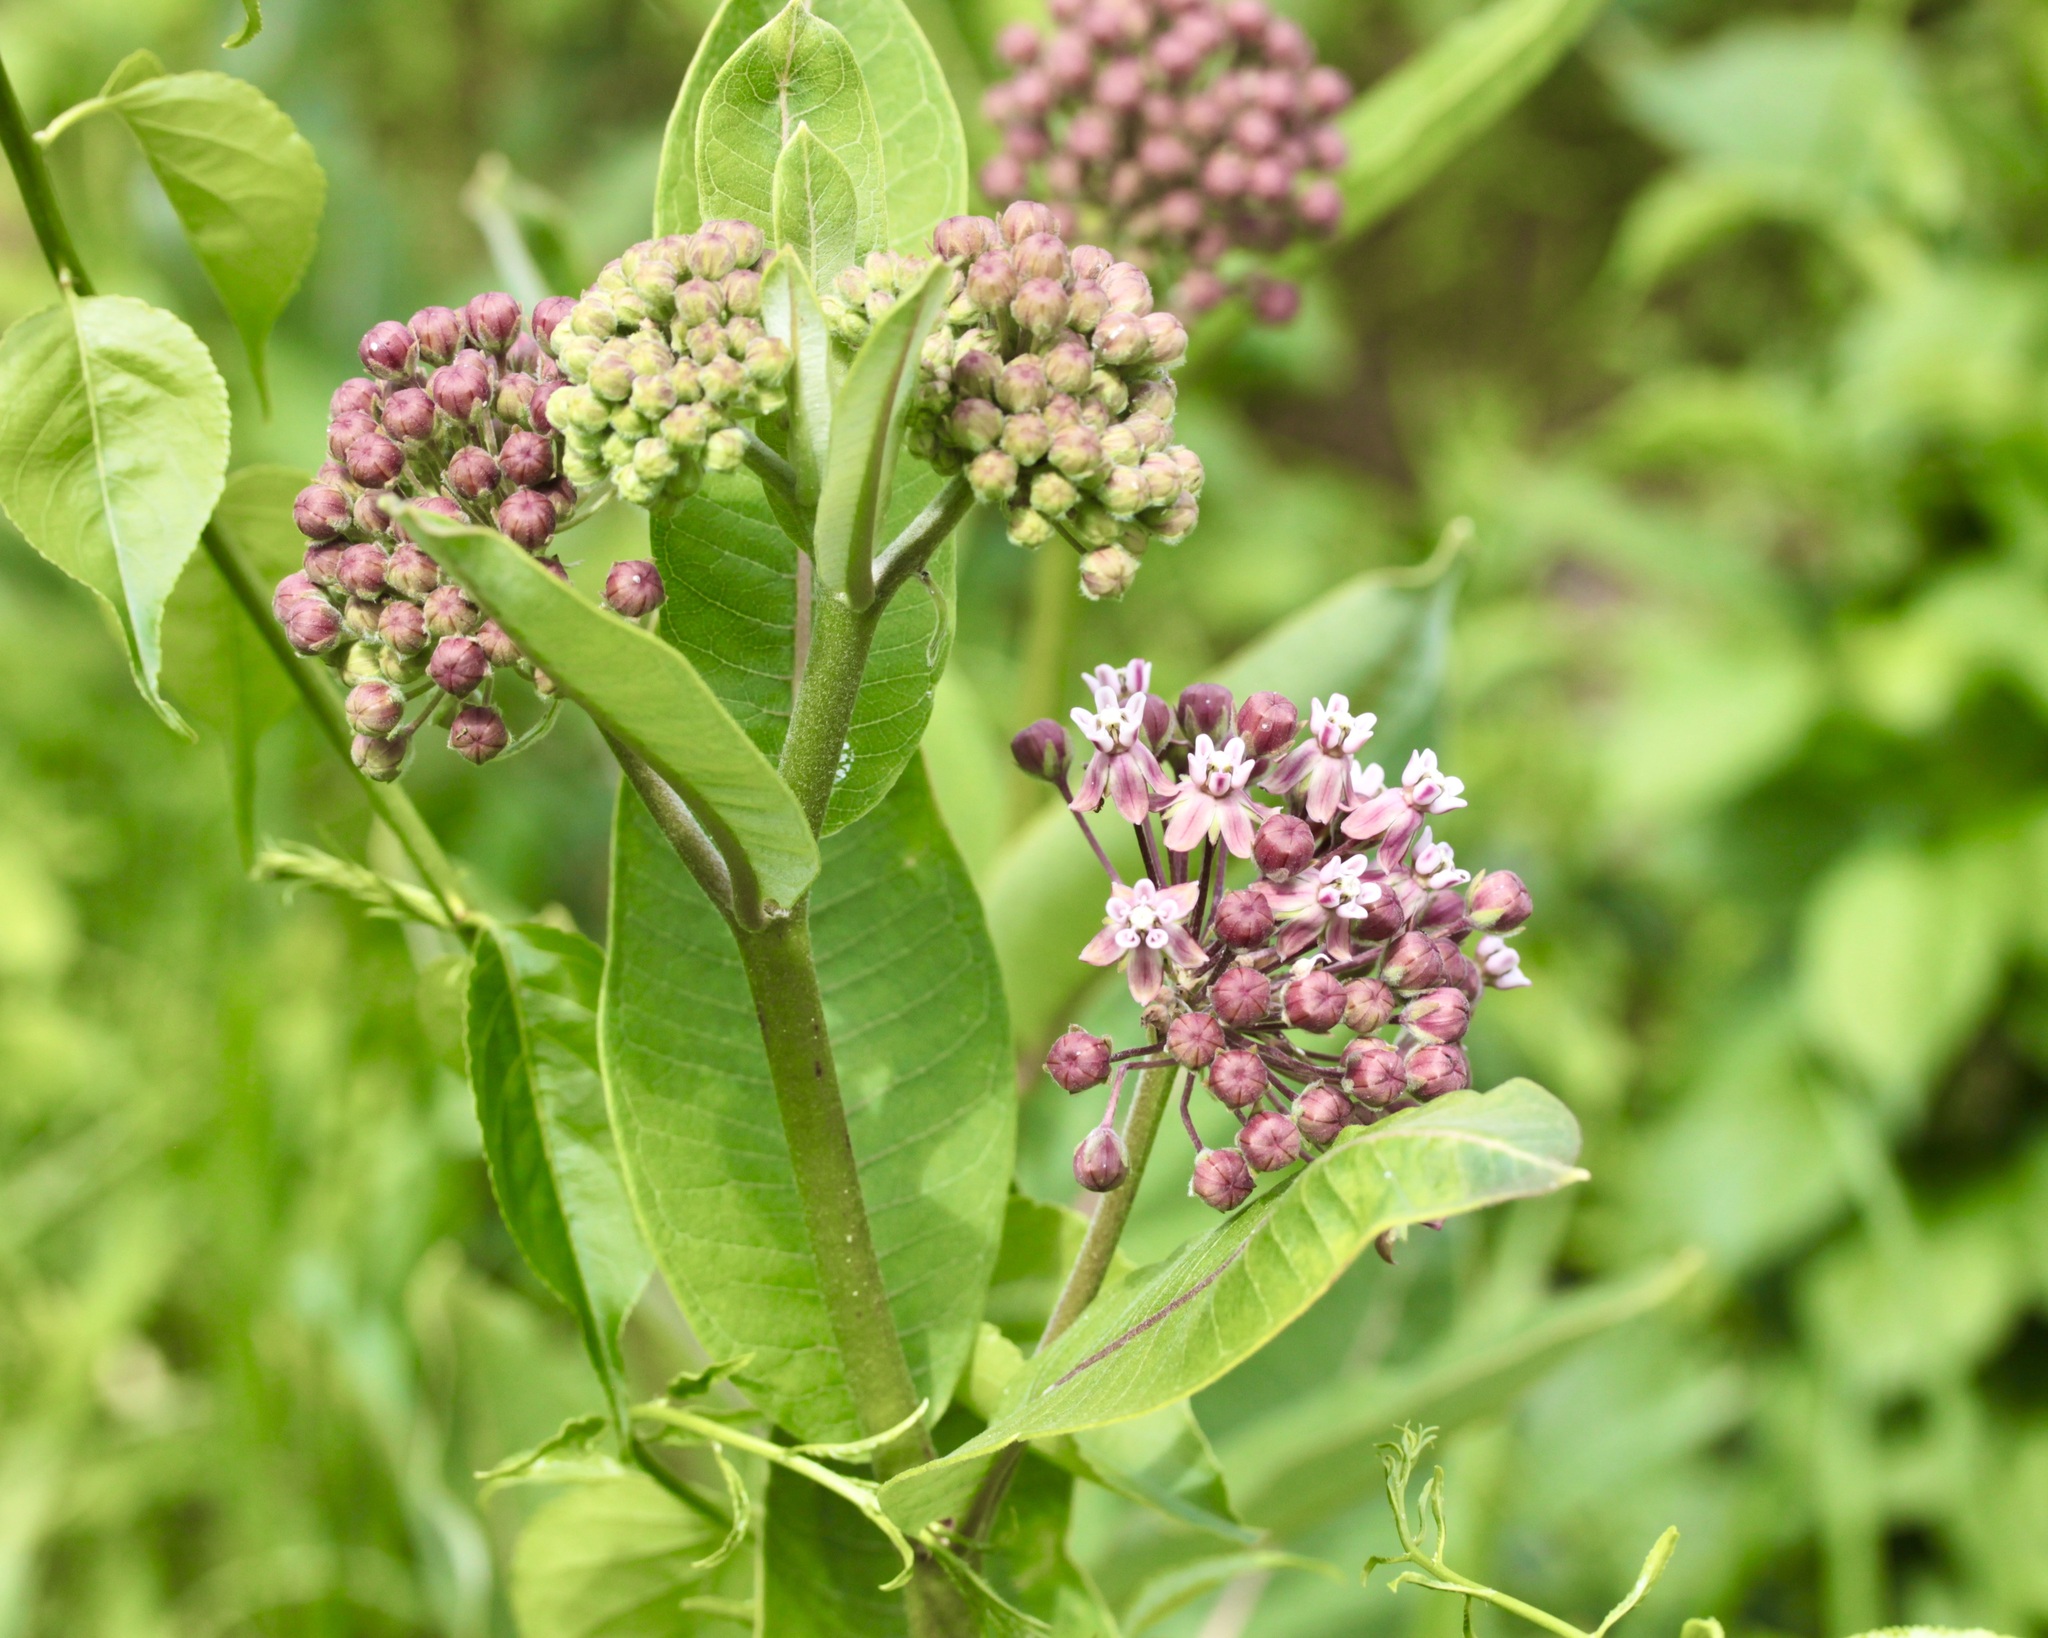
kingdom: Plantae
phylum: Tracheophyta
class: Magnoliopsida
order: Gentianales
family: Apocynaceae
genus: Asclepias
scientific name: Asclepias syriaca
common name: Common milkweed
